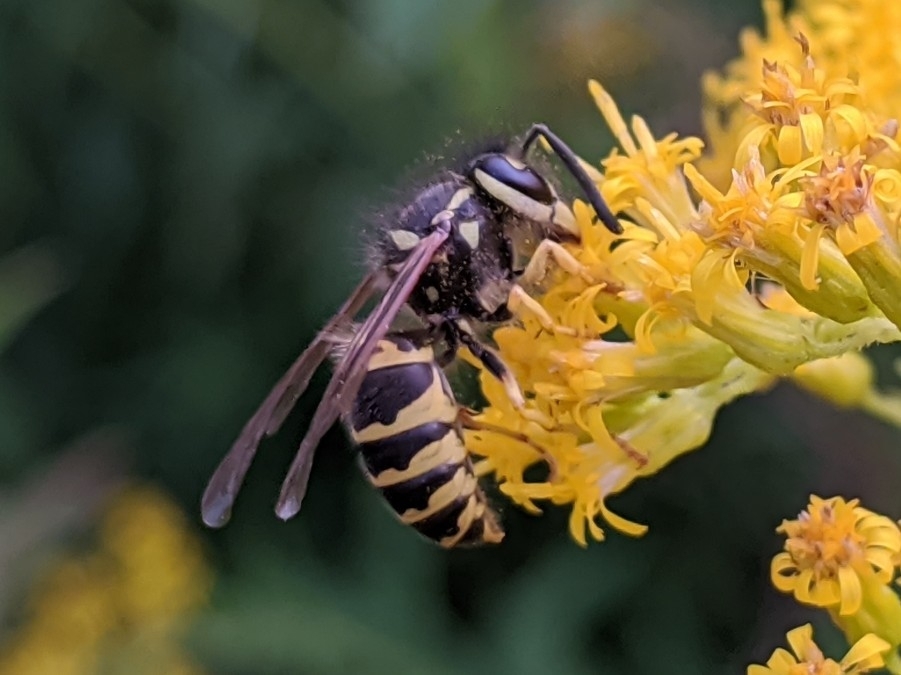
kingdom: Animalia
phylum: Arthropoda
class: Insecta
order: Hymenoptera
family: Vespidae
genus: Vespula
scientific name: Vespula maculifrons
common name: Eastern yellowjacket
